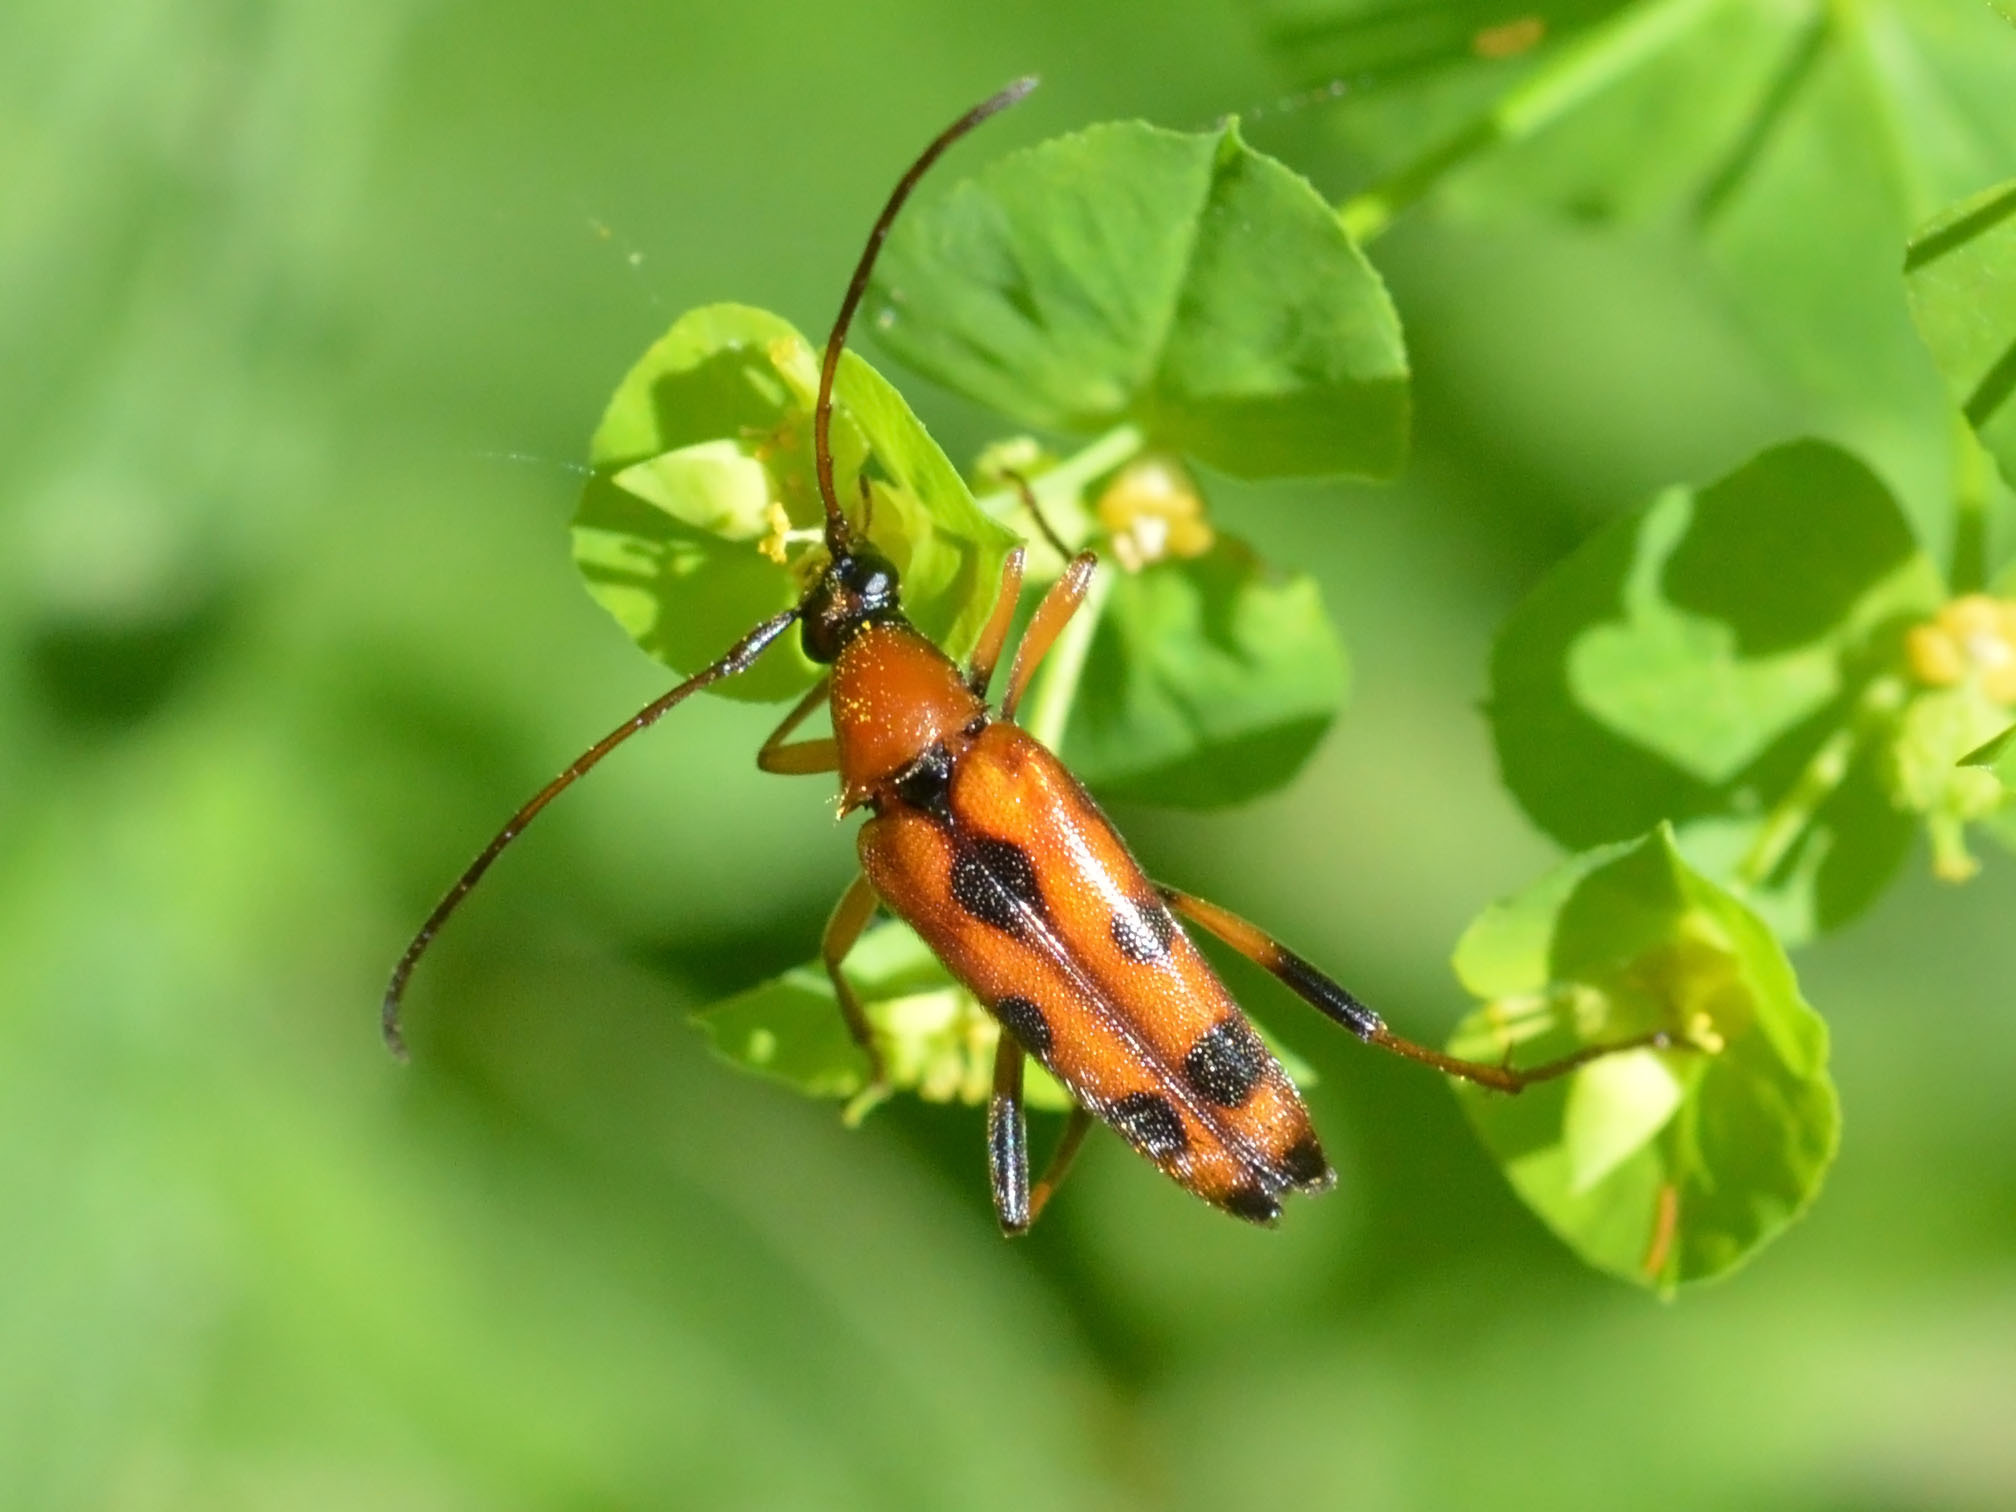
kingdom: Animalia
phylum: Arthropoda
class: Insecta
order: Coleoptera
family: Cerambycidae
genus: Stenurella
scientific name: Stenurella septempunctata
